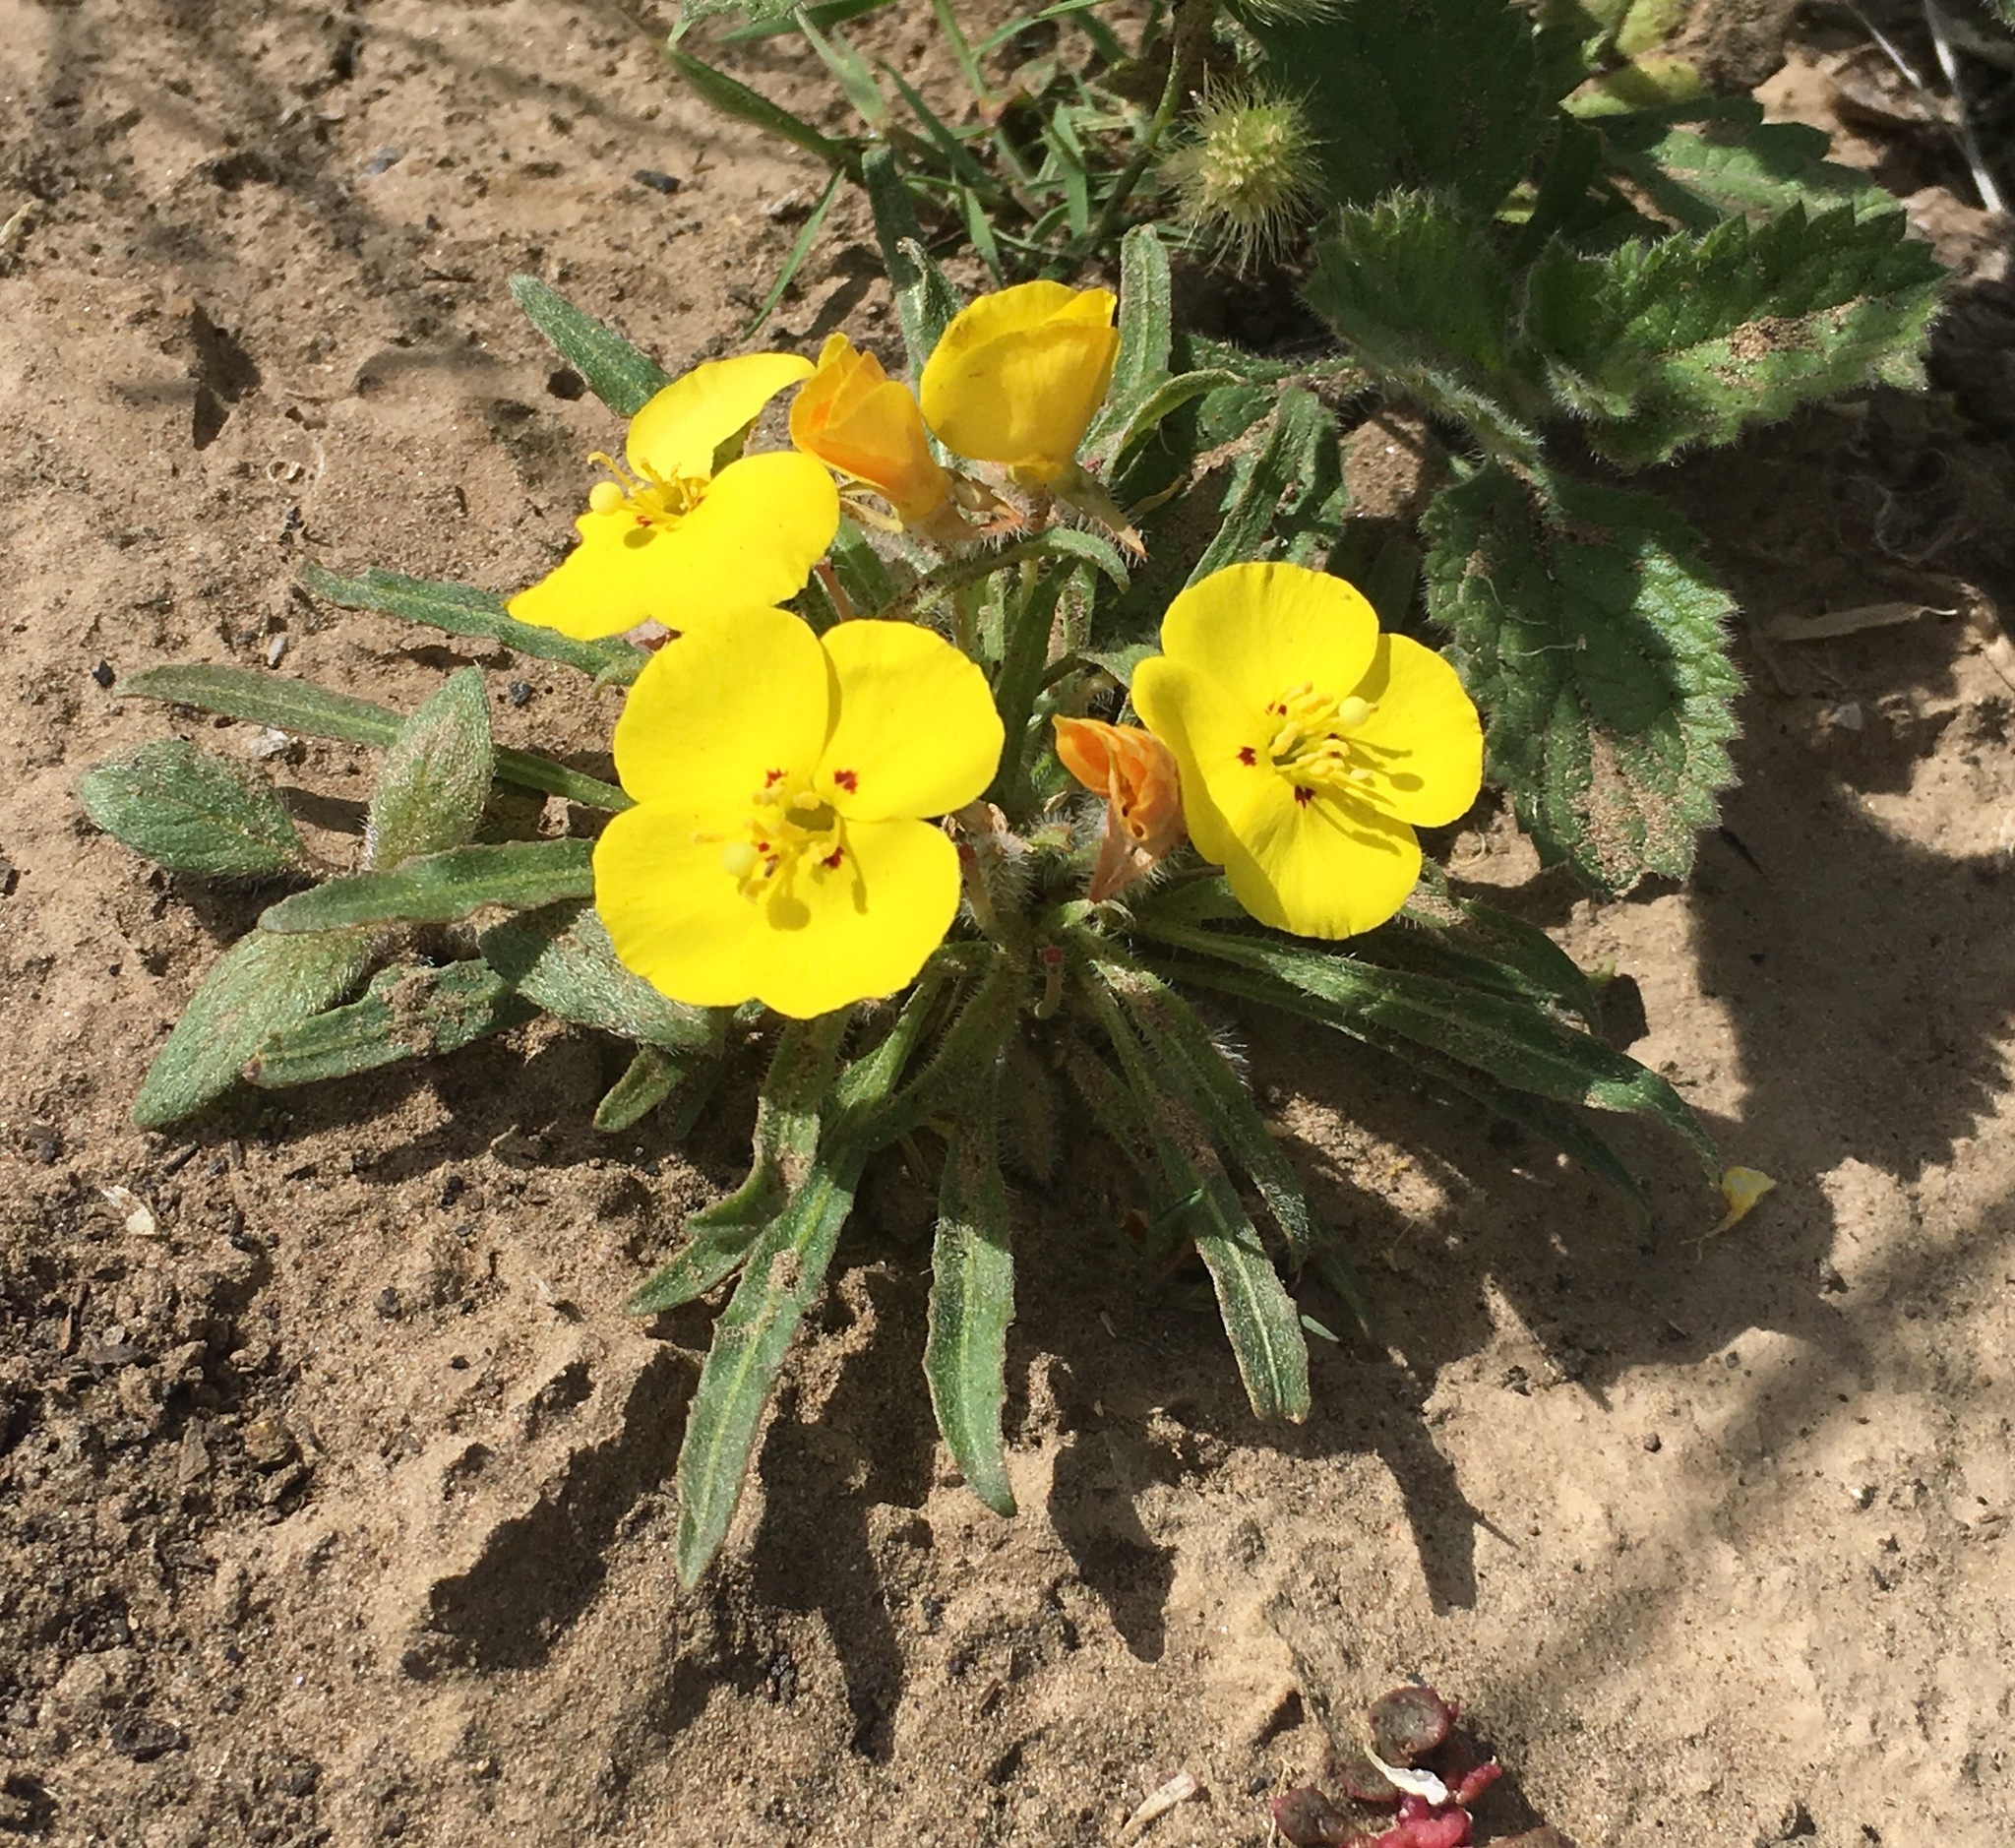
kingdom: Plantae
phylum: Tracheophyta
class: Magnoliopsida
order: Myrtales
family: Onagraceae
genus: Camissoniopsis
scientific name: Camissoniopsis bistorta
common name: Southern suncup
